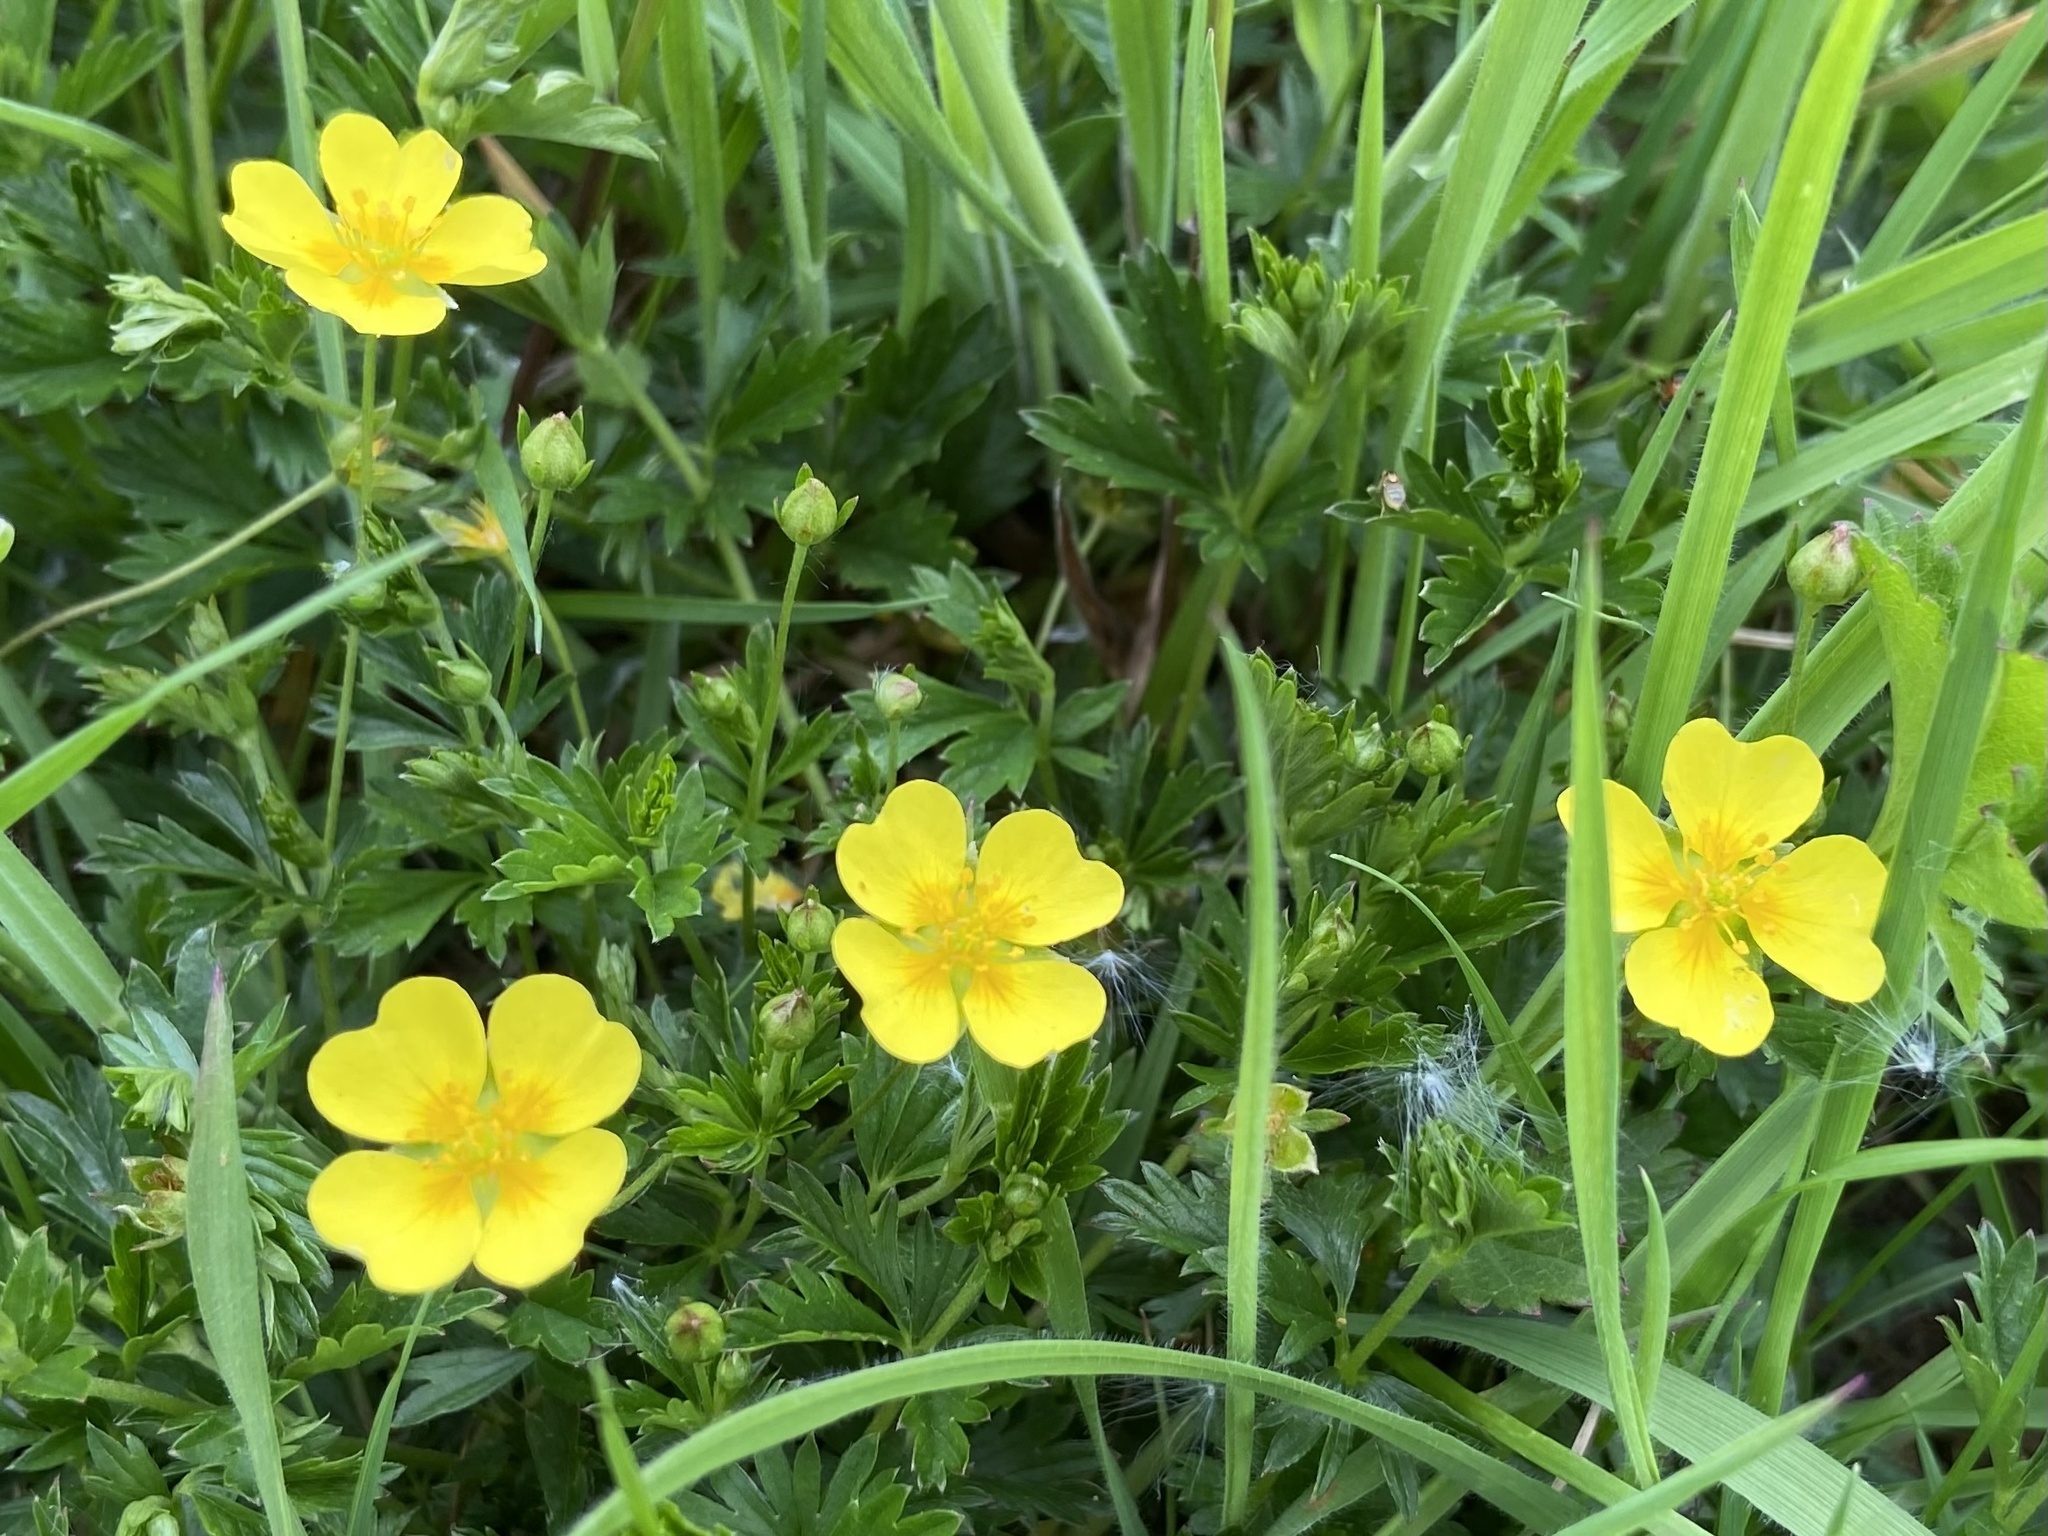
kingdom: Plantae
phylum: Tracheophyta
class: Magnoliopsida
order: Rosales
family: Rosaceae
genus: Potentilla
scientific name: Potentilla erecta
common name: Tormentil
